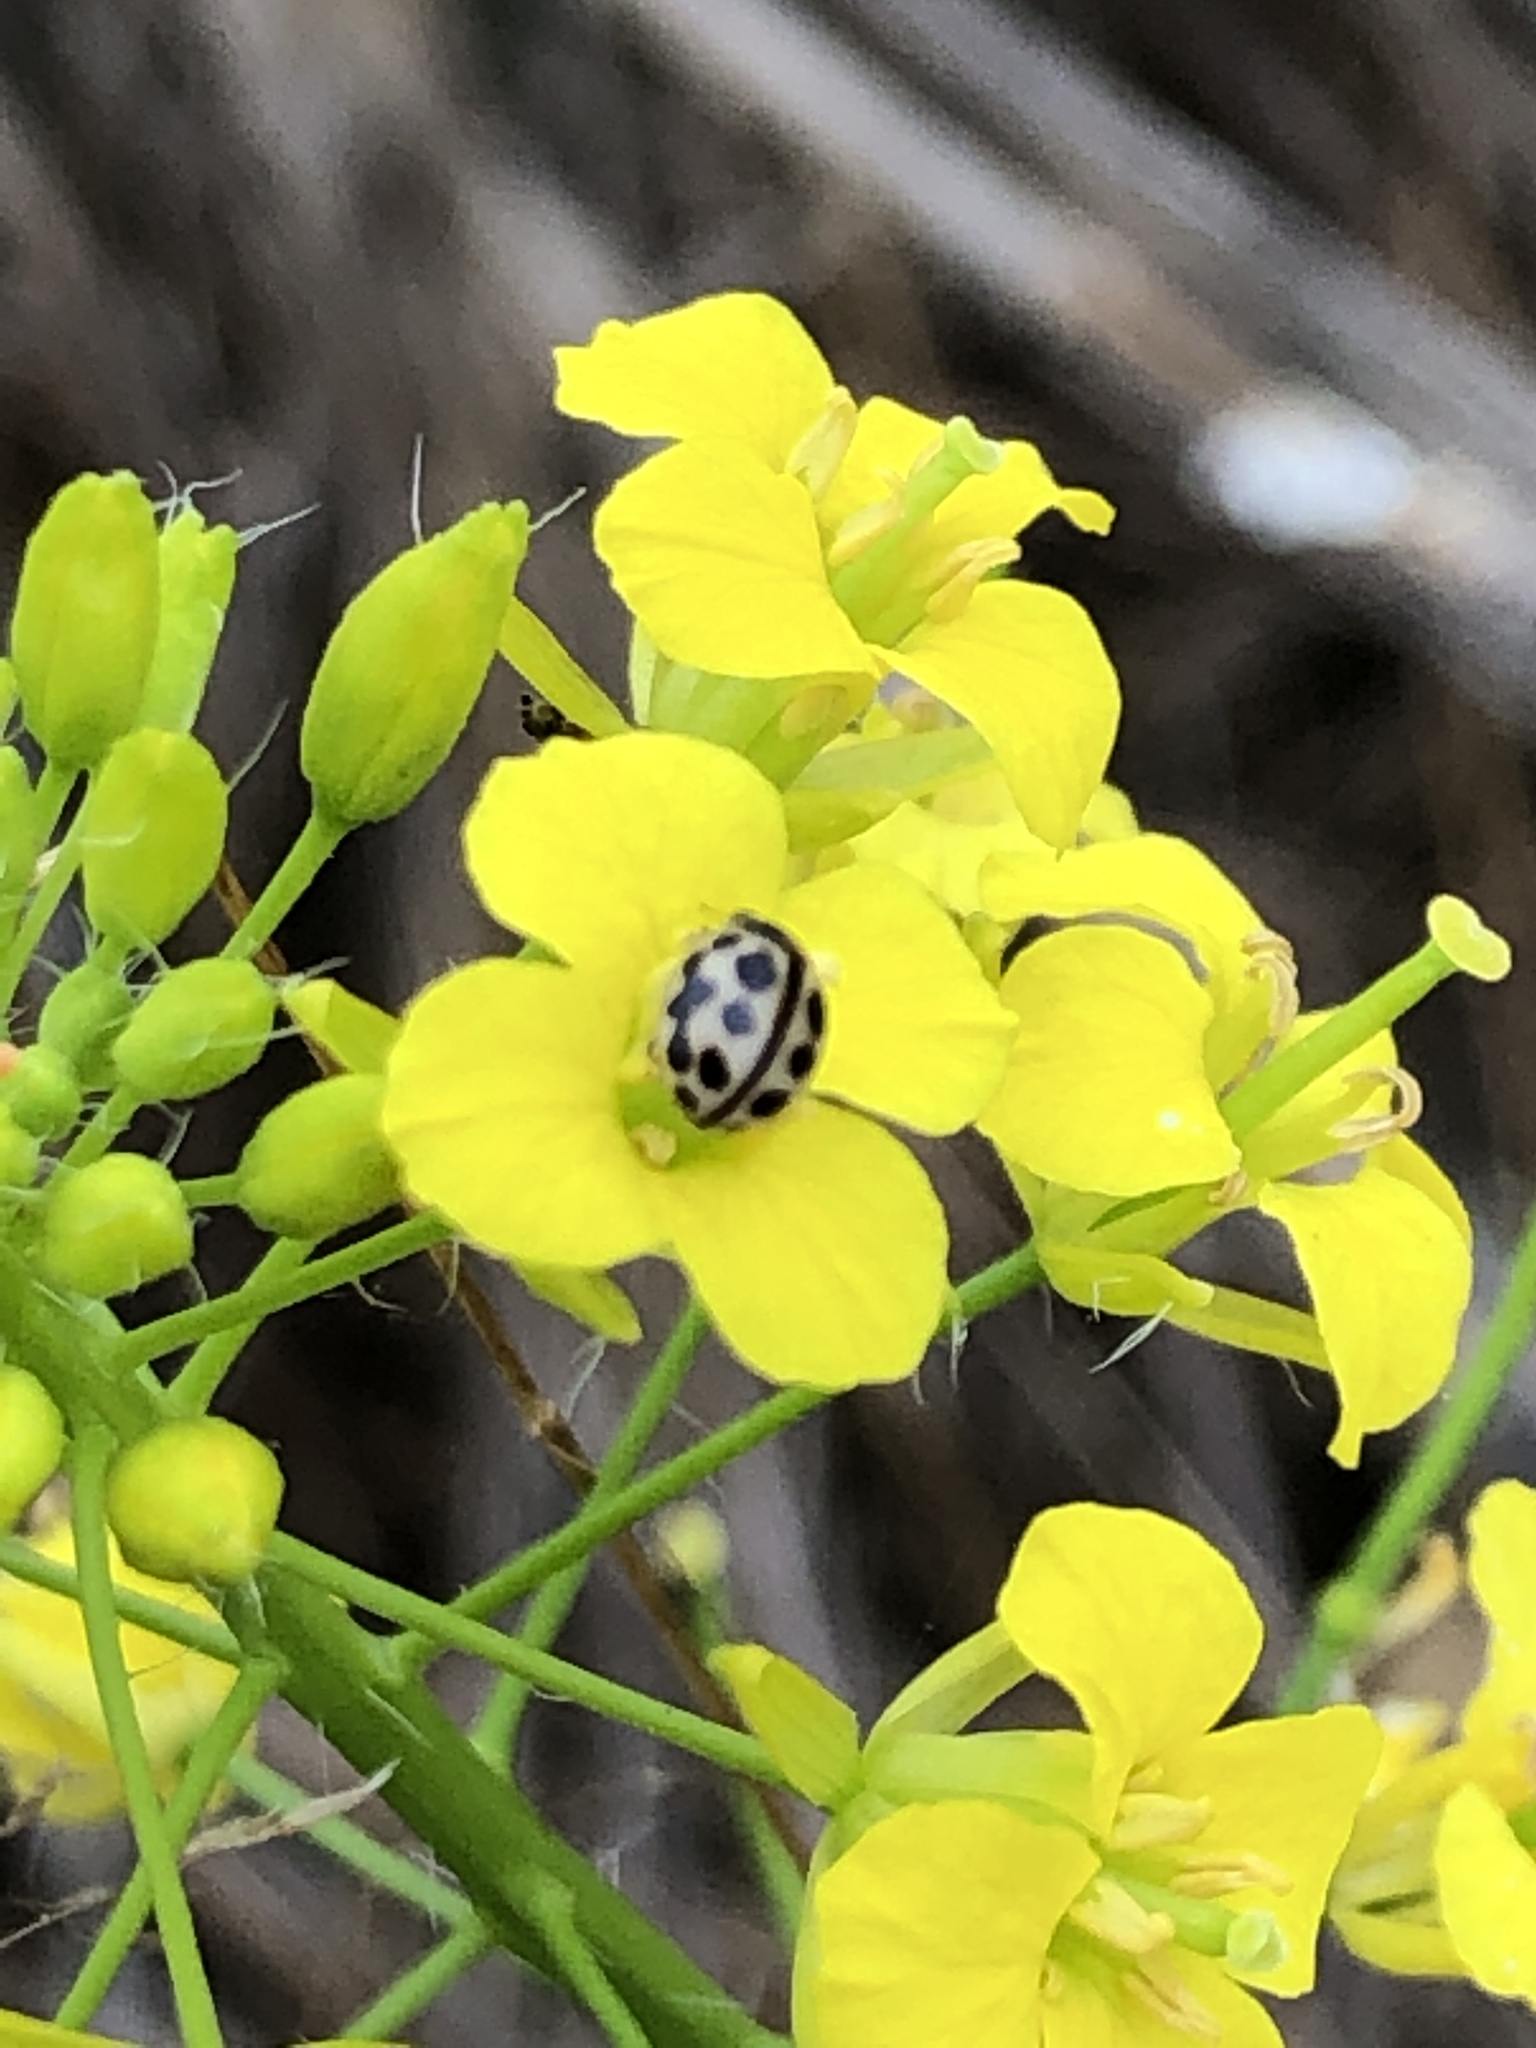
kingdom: Animalia
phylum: Arthropoda
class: Insecta
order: Coleoptera
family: Coccinellidae
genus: Tytthaspis
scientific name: Tytthaspis sedecimpunctata
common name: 16-spot ladybird
